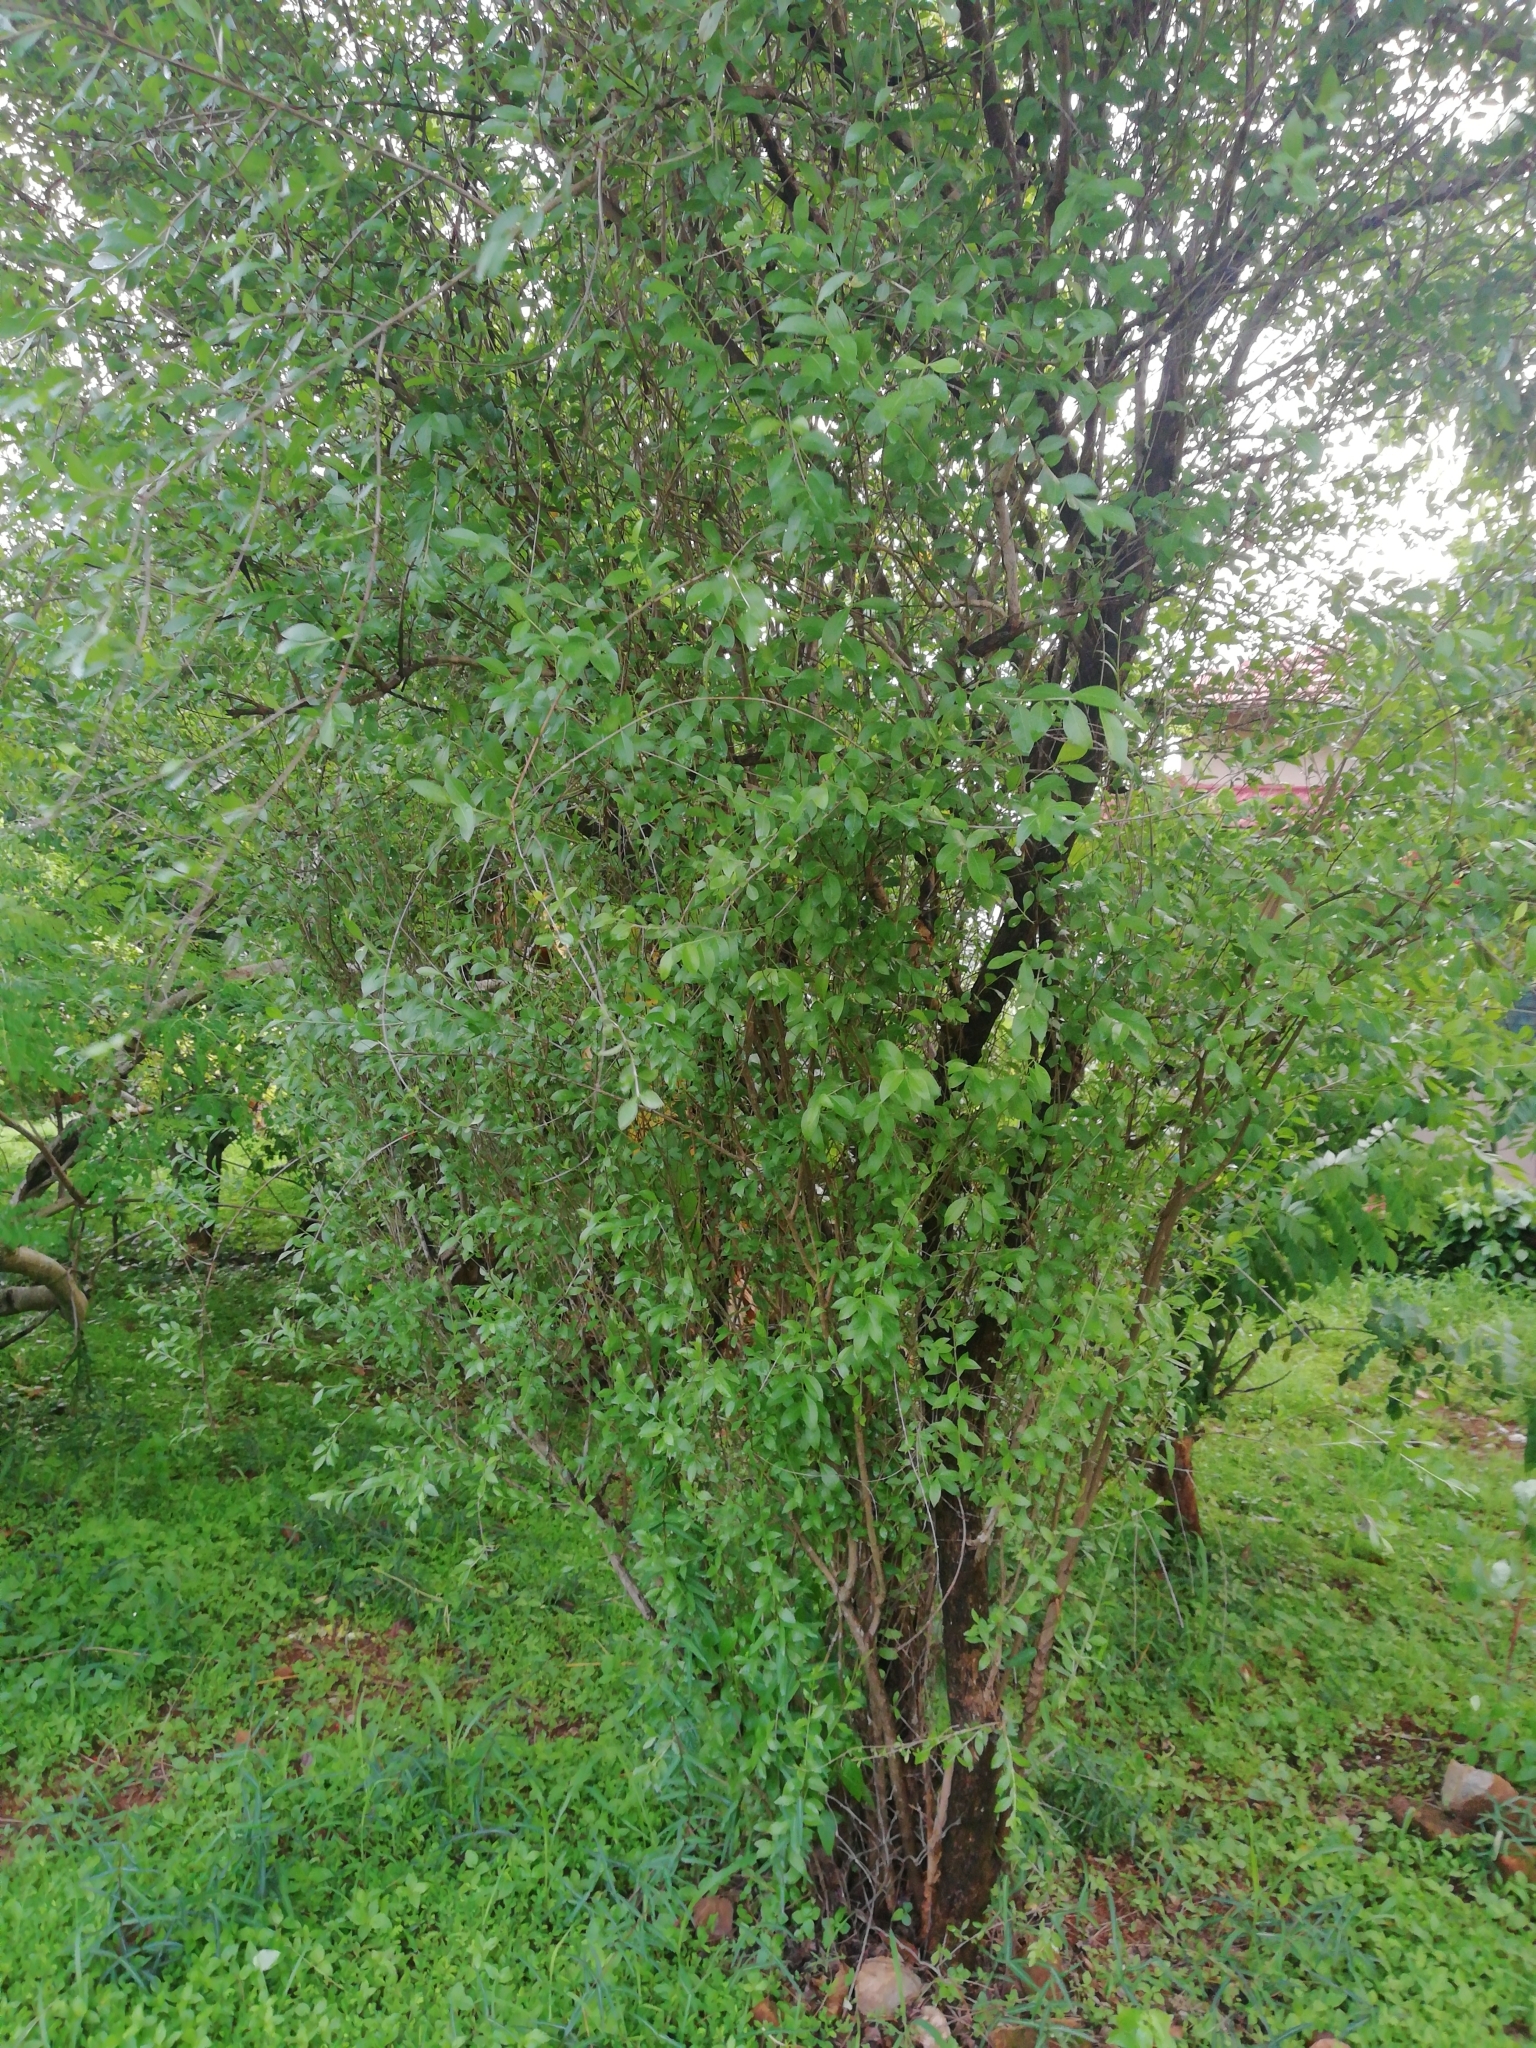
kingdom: Plantae
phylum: Tracheophyta
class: Magnoliopsida
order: Myrtales
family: Lythraceae
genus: Lawsonia
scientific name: Lawsonia inermis
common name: Henna
